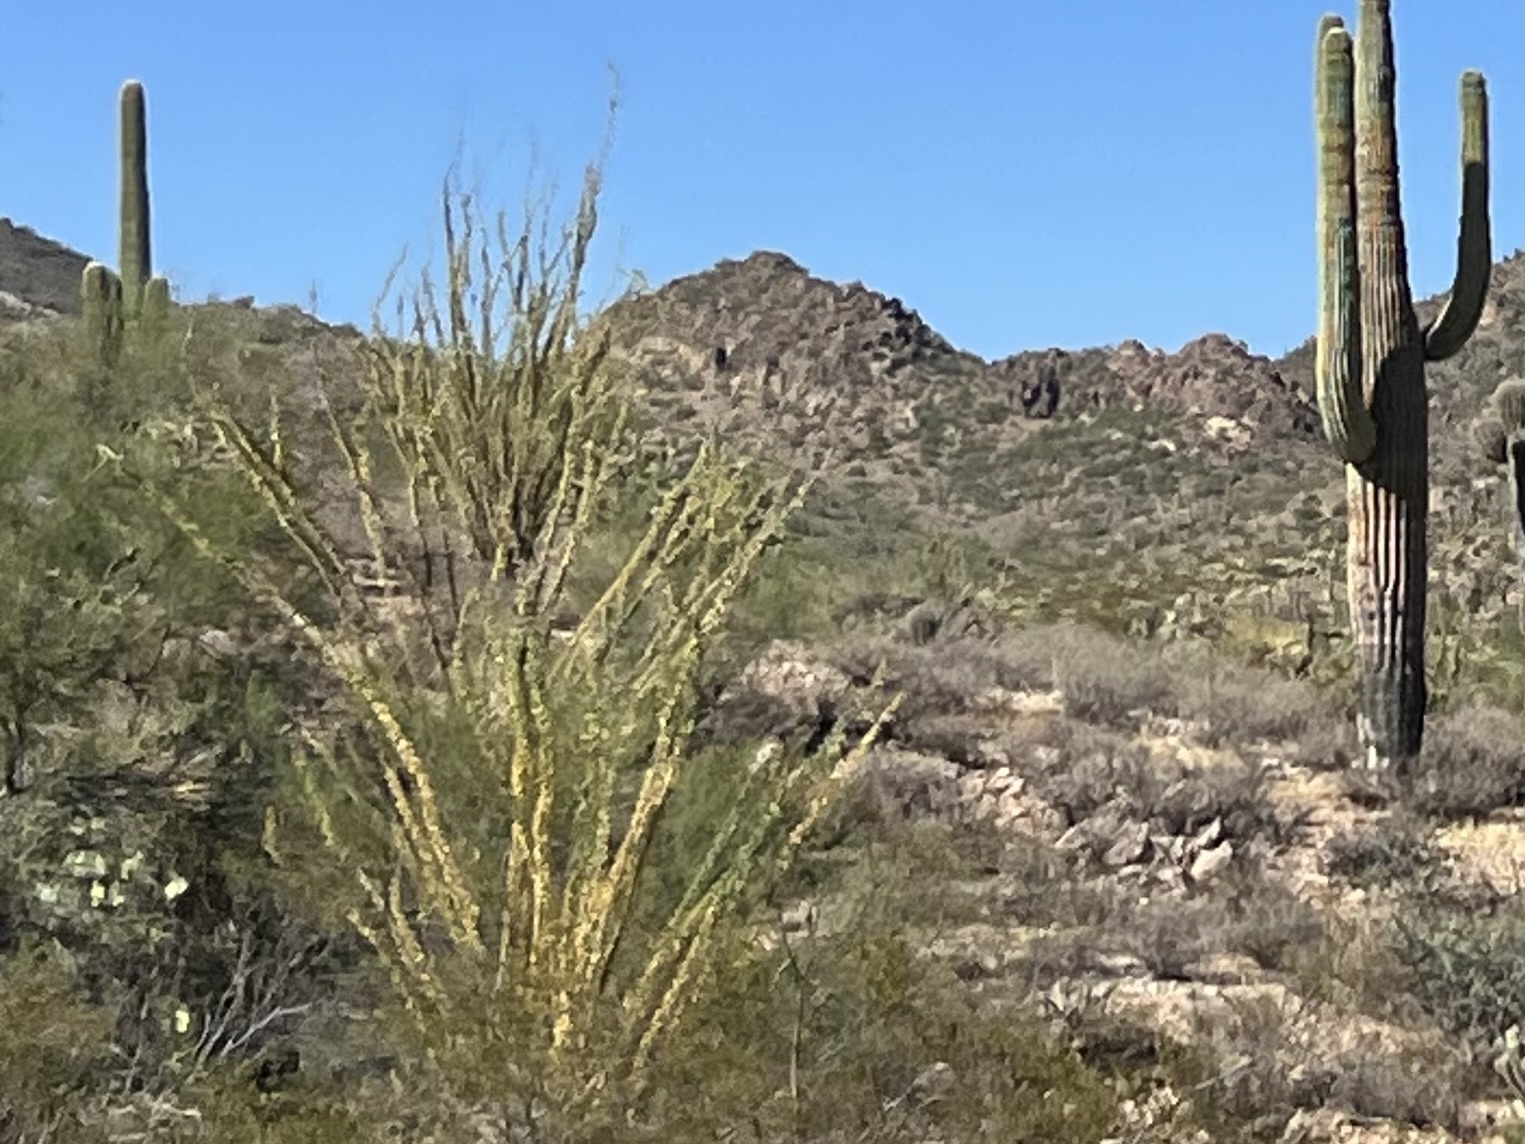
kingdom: Plantae
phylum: Tracheophyta
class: Magnoliopsida
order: Ericales
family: Fouquieriaceae
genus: Fouquieria
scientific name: Fouquieria splendens
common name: Vine-cactus
